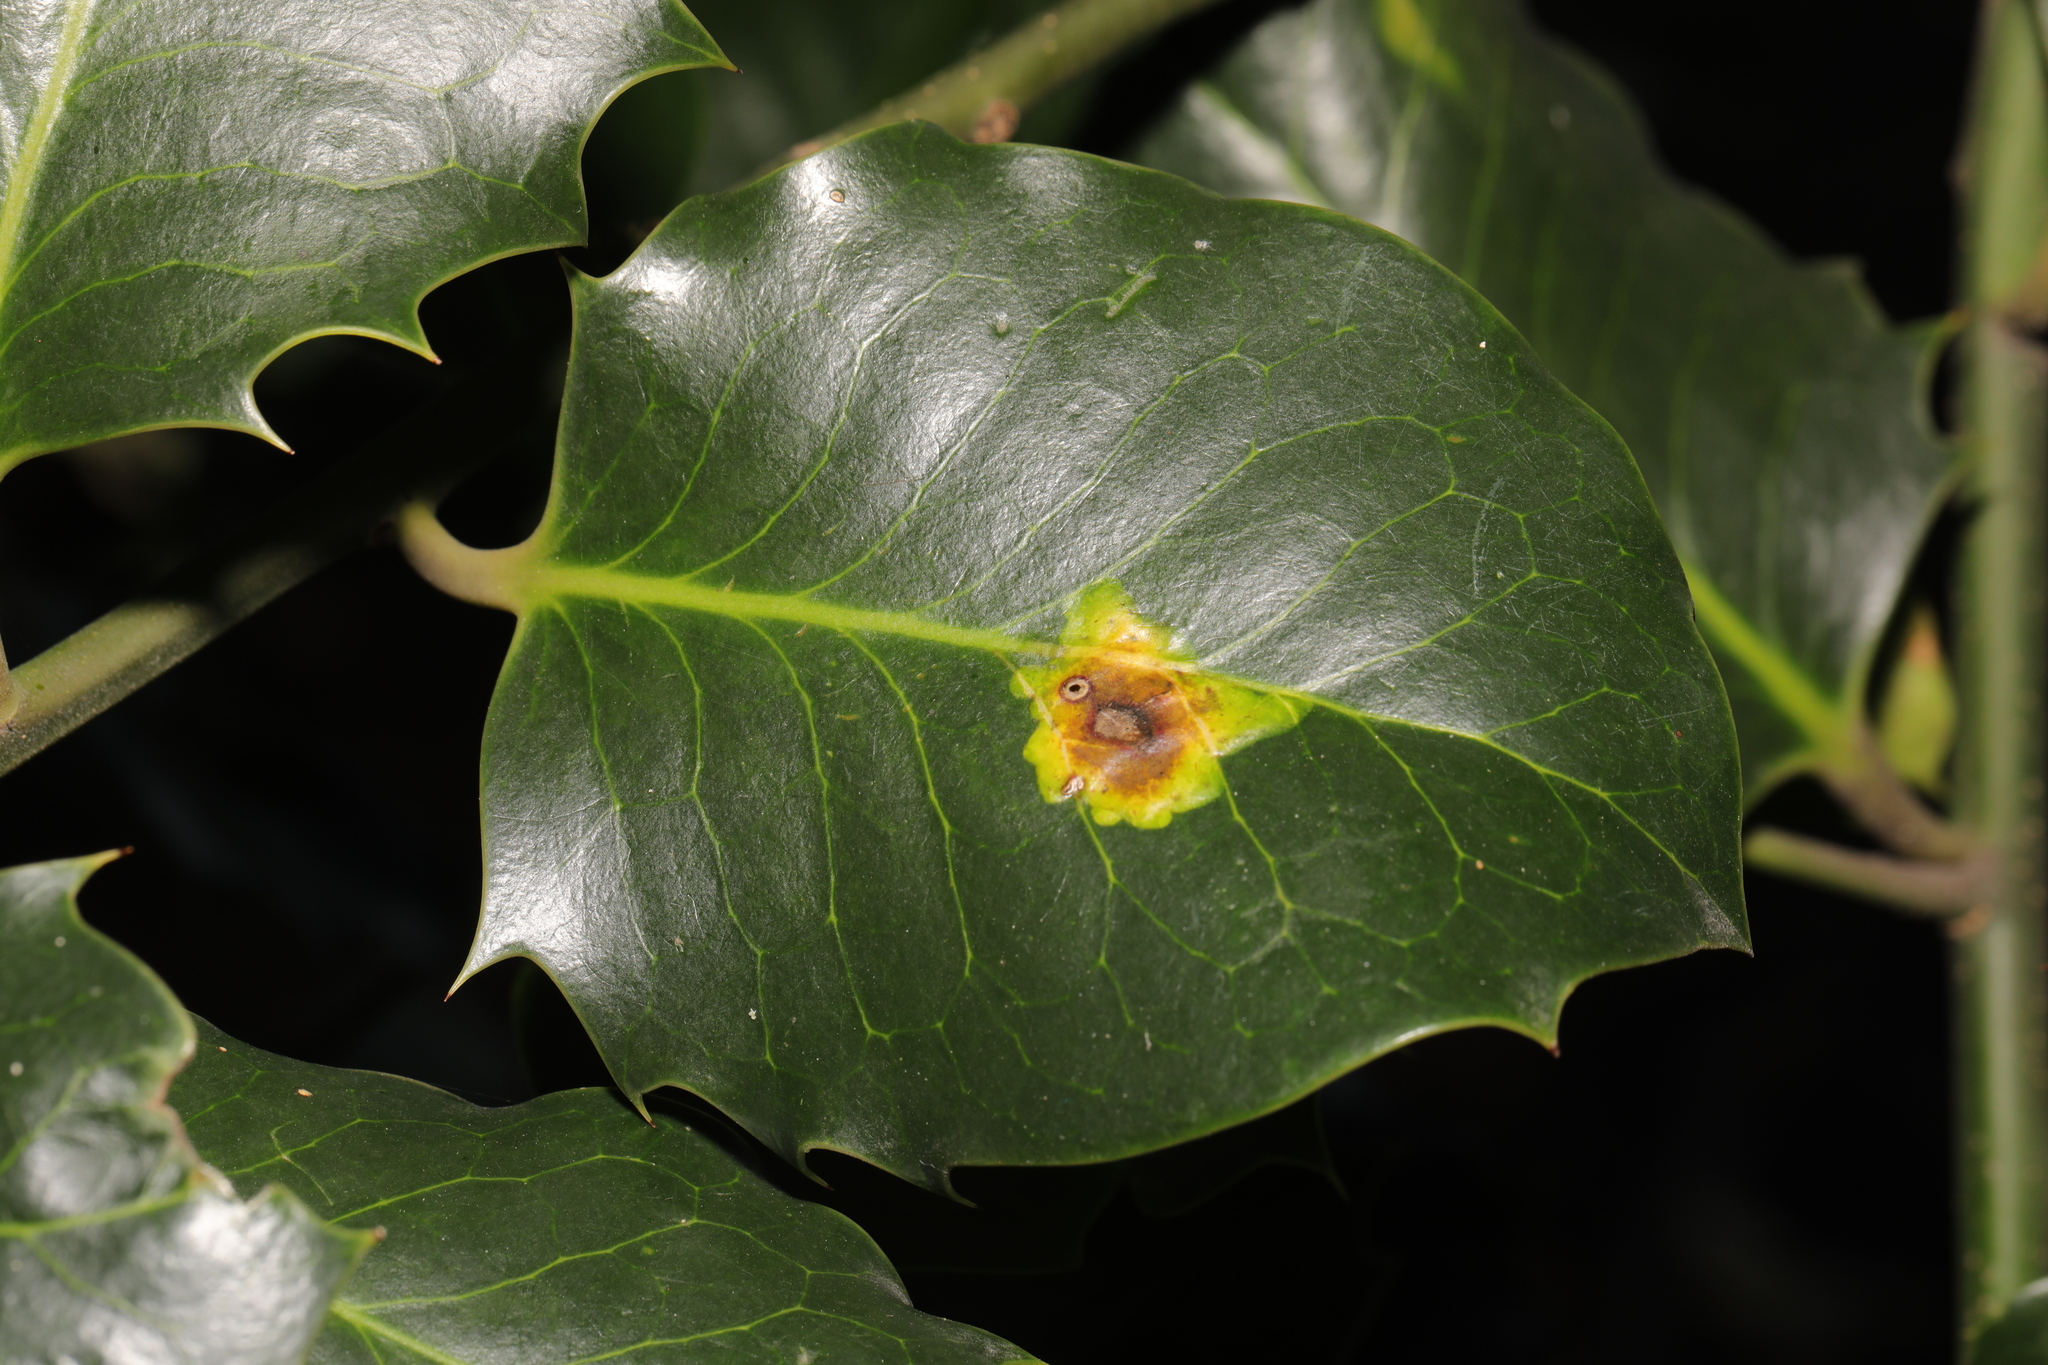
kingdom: Animalia
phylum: Arthropoda
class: Insecta
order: Diptera
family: Agromyzidae
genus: Phytomyza
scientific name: Phytomyza ilicis
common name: Holly leafminer
